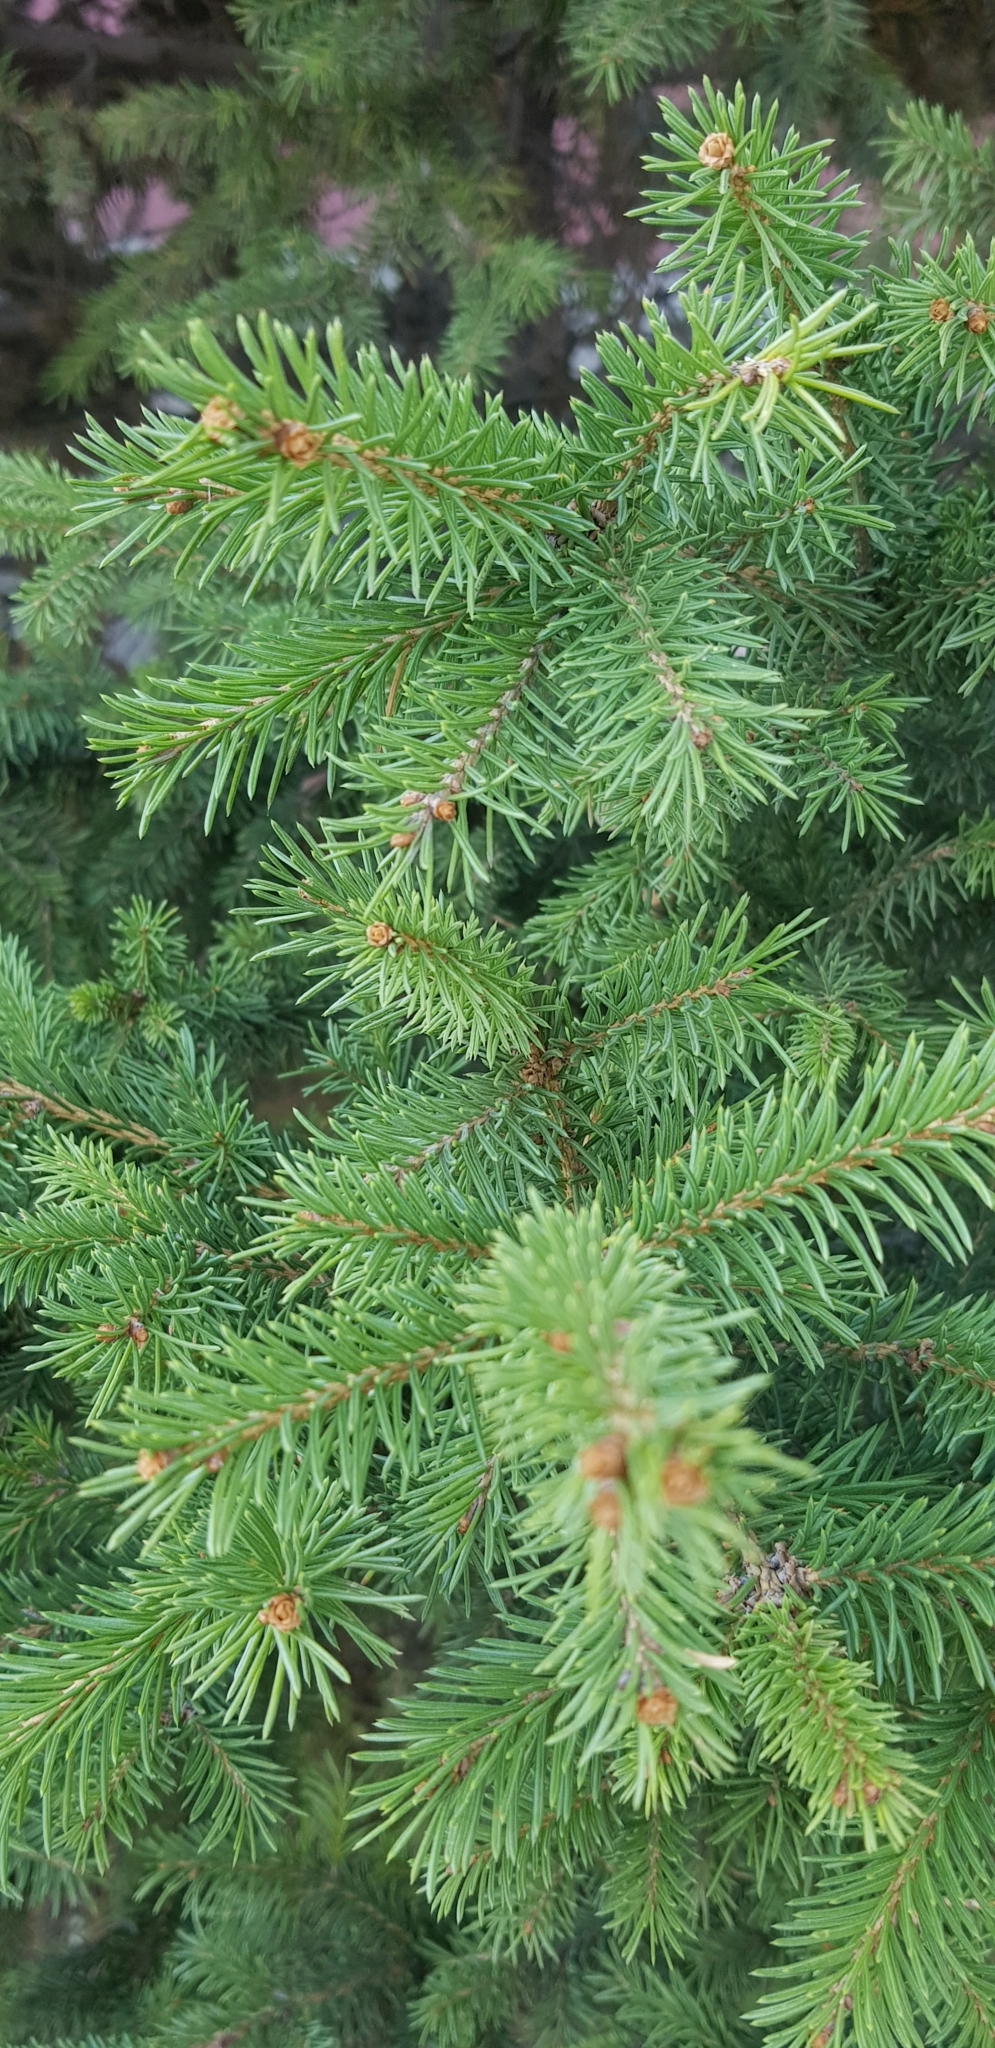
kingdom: Plantae
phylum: Tracheophyta
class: Pinopsida
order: Pinales
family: Pinaceae
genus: Picea
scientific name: Picea obovata
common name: Siberian spruce
